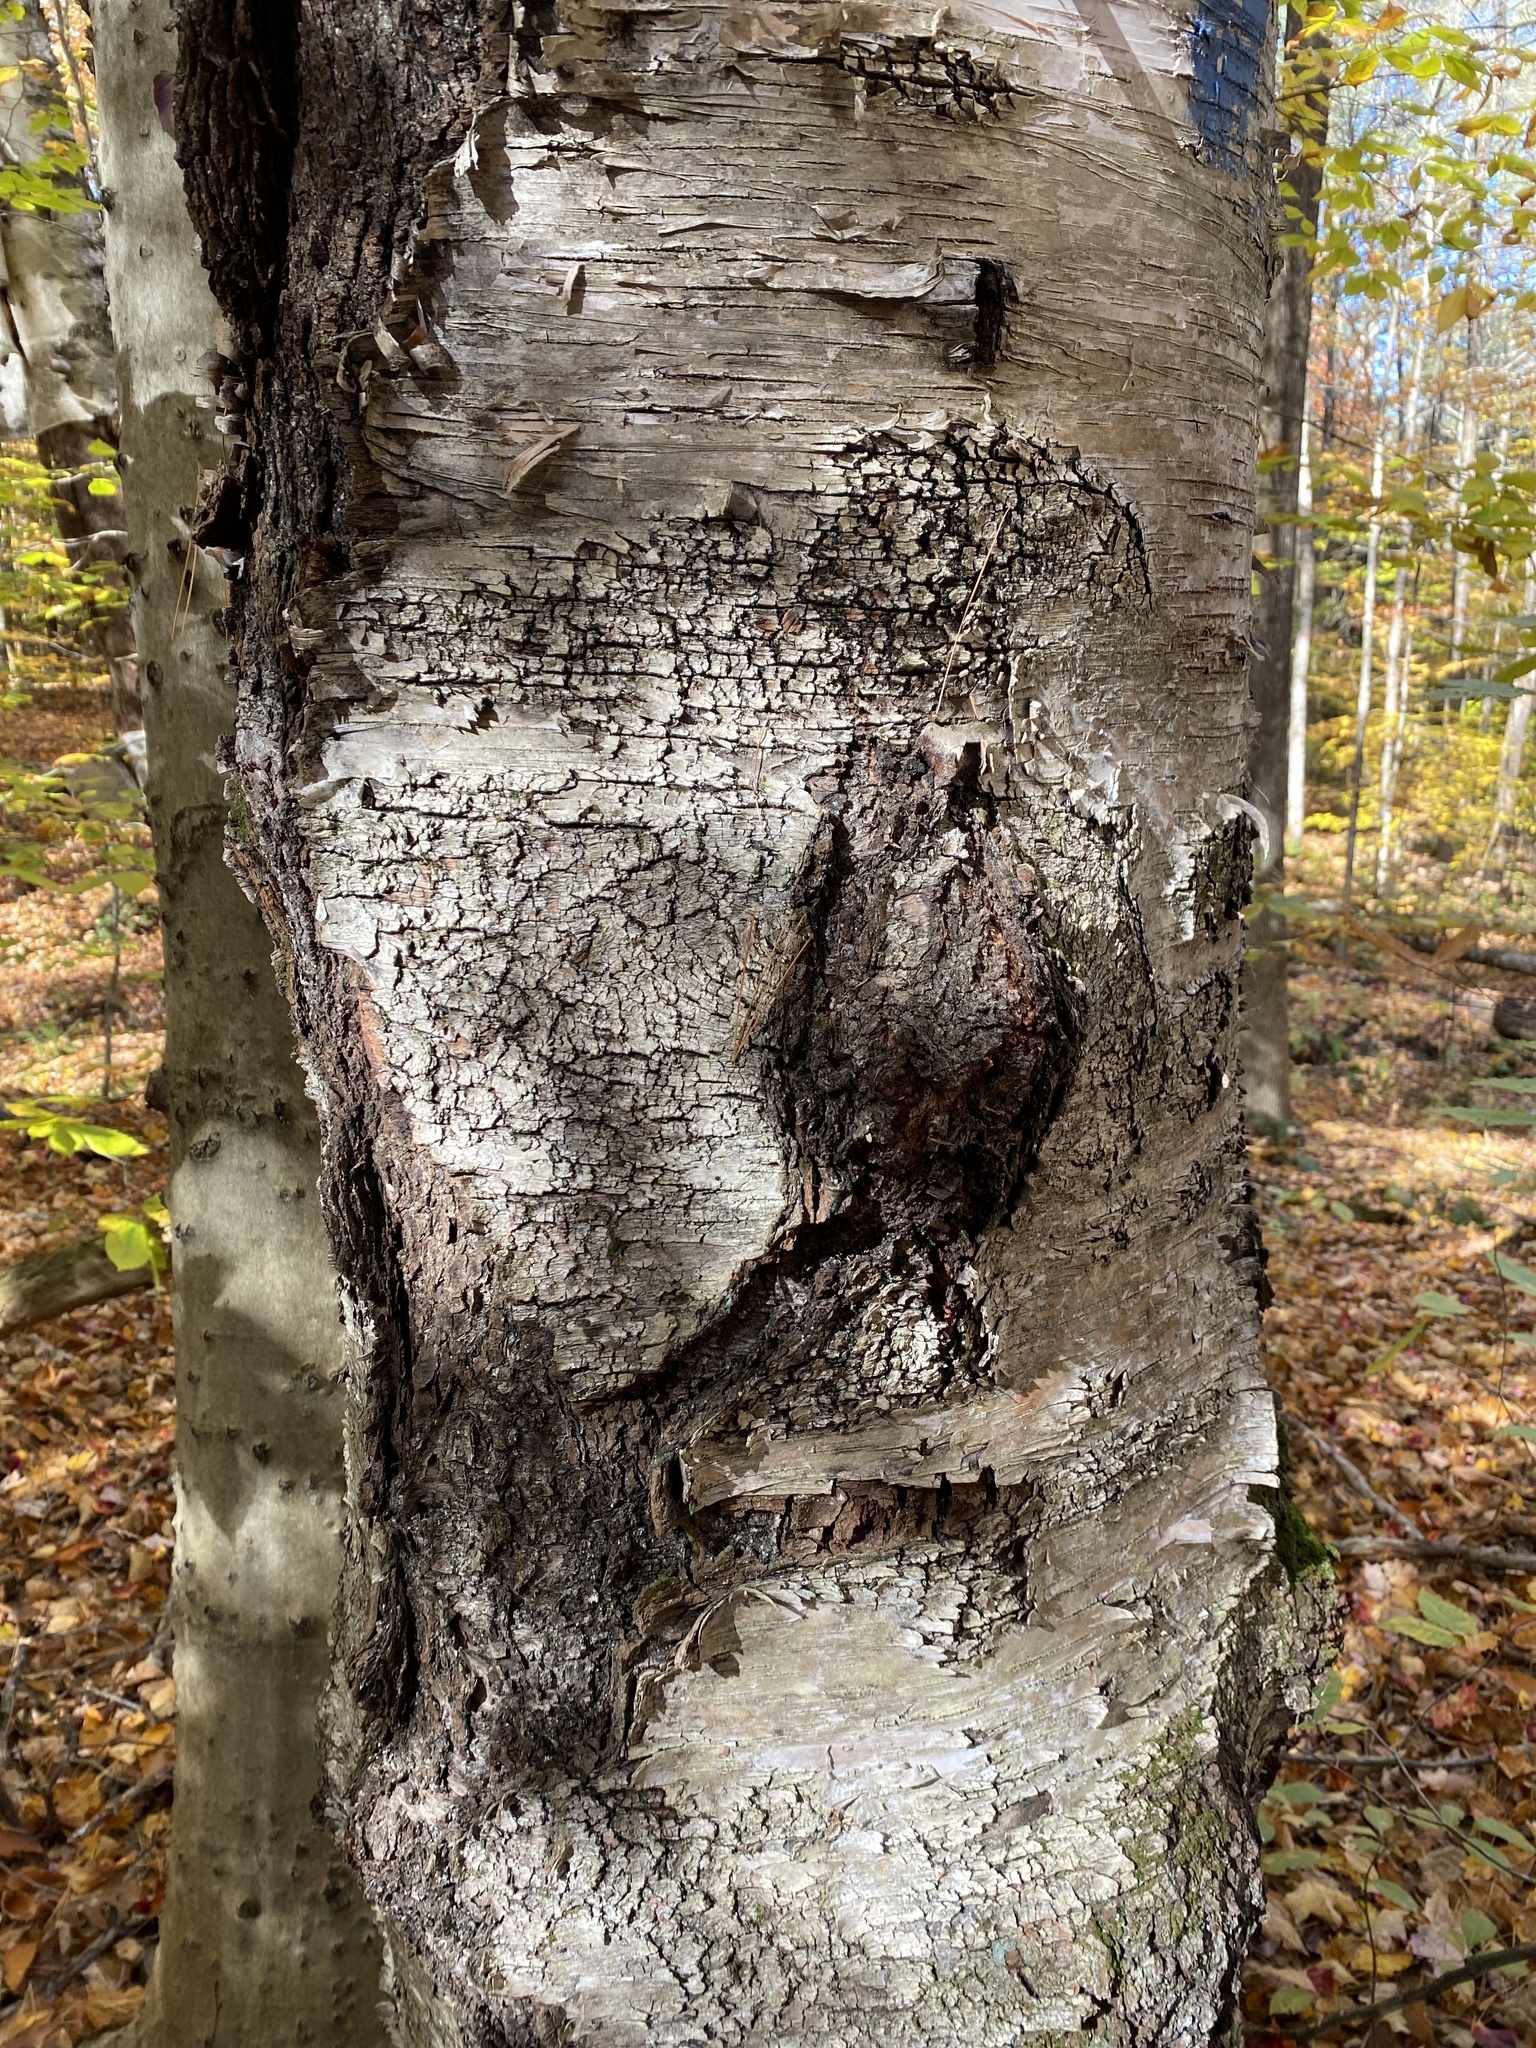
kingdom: Plantae
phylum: Tracheophyta
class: Magnoliopsida
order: Fagales
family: Betulaceae
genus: Betula
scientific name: Betula papyrifera
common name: Paper birch
